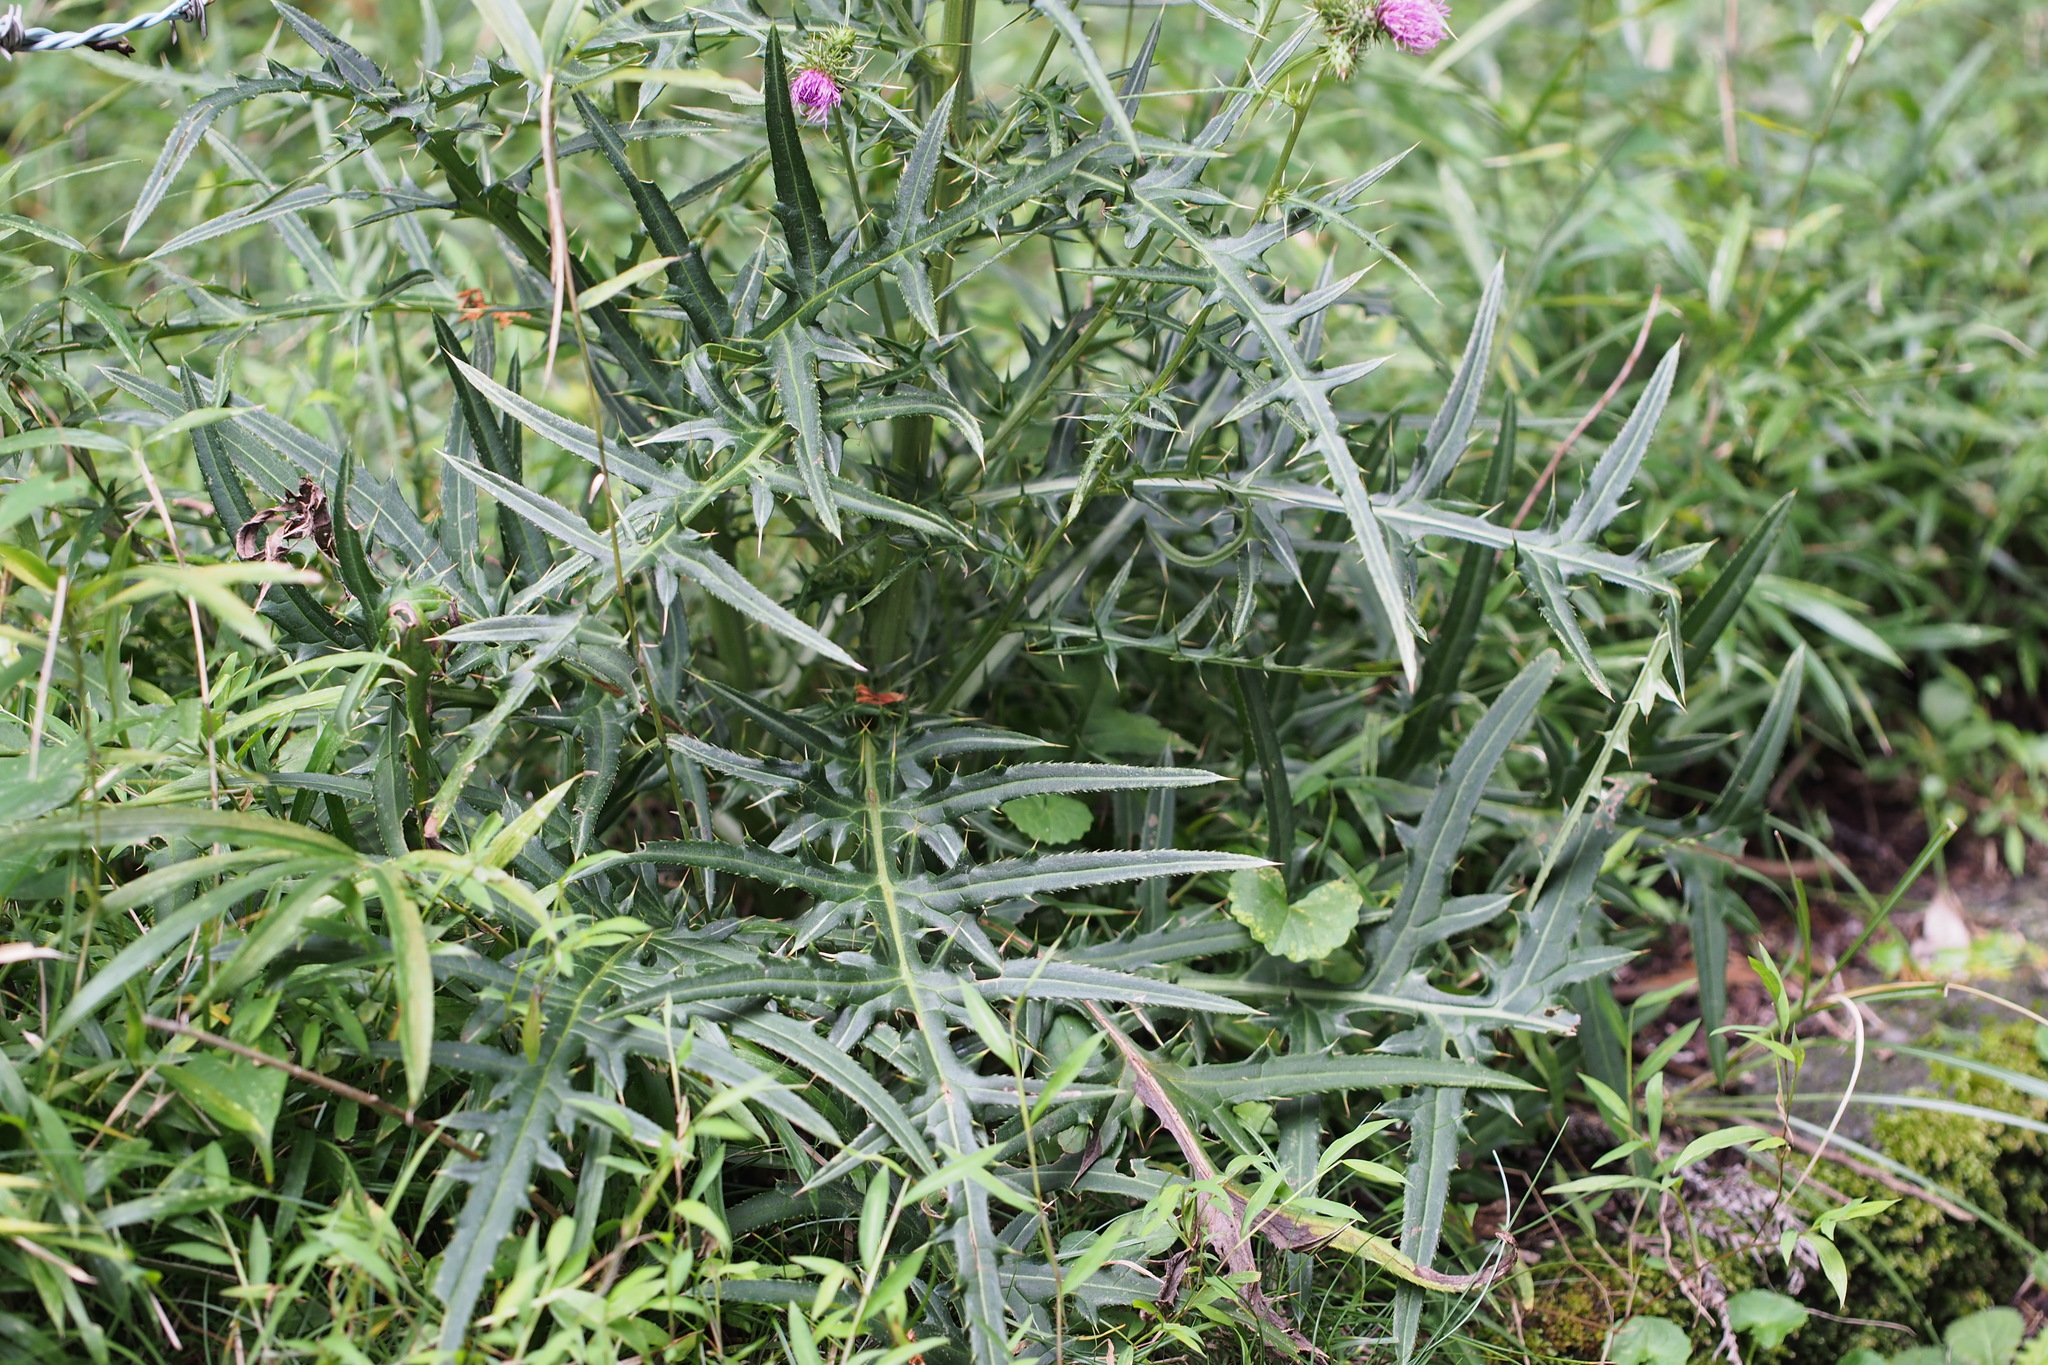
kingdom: Plantae
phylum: Tracheophyta
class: Magnoliopsida
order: Asterales
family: Asteraceae
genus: Cirsium
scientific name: Cirsium nipponicum
